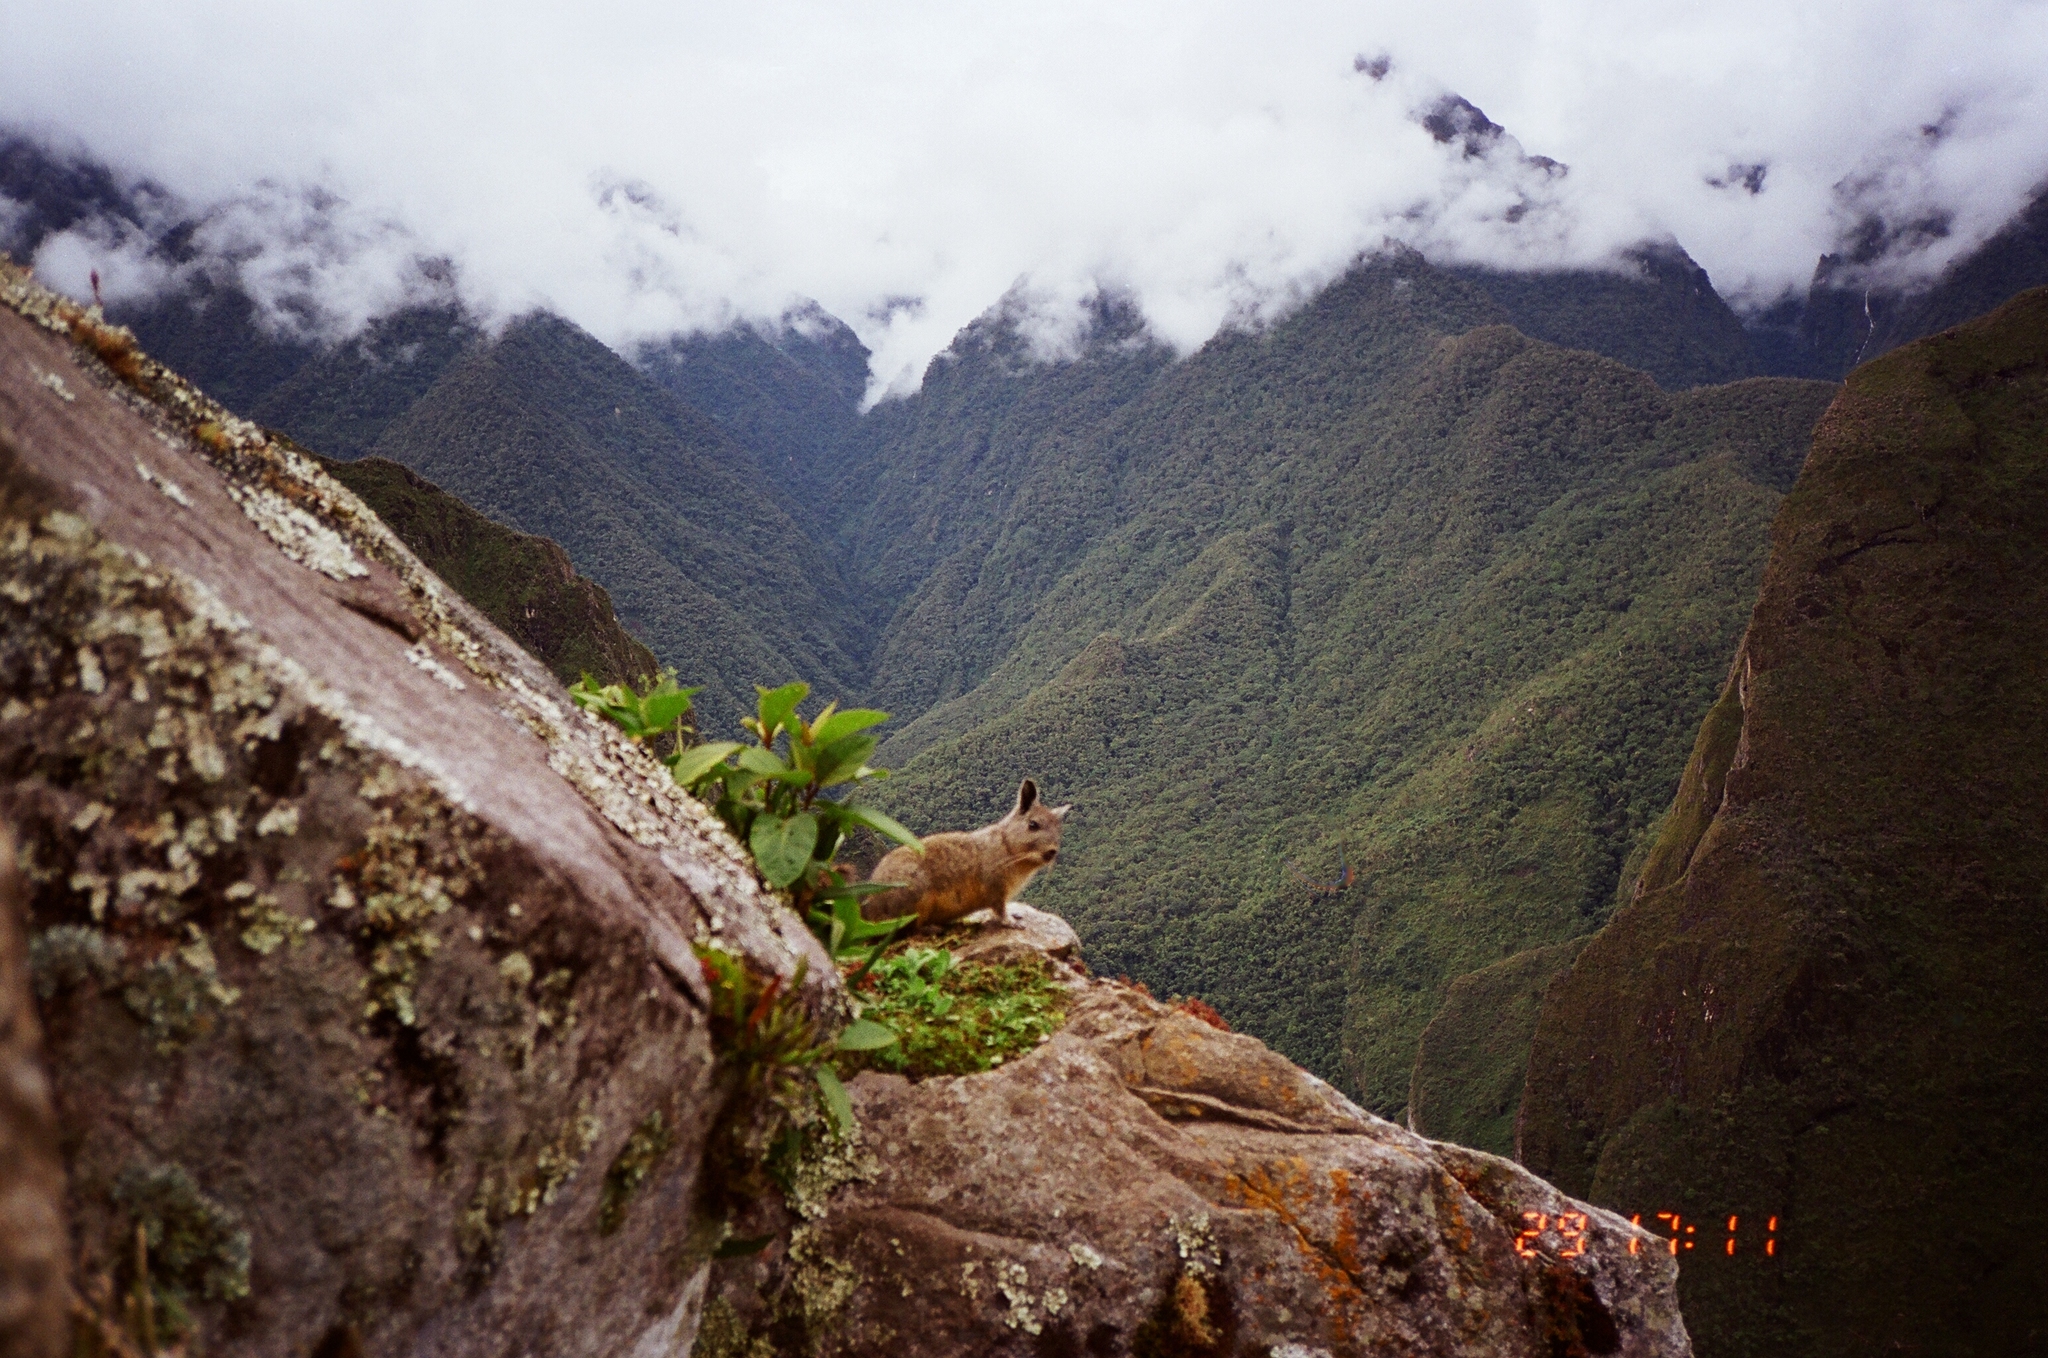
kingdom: Animalia
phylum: Chordata
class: Mammalia
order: Rodentia
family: Chinchillidae
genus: Lagidium
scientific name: Lagidium viscacia
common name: Southern viscacha
